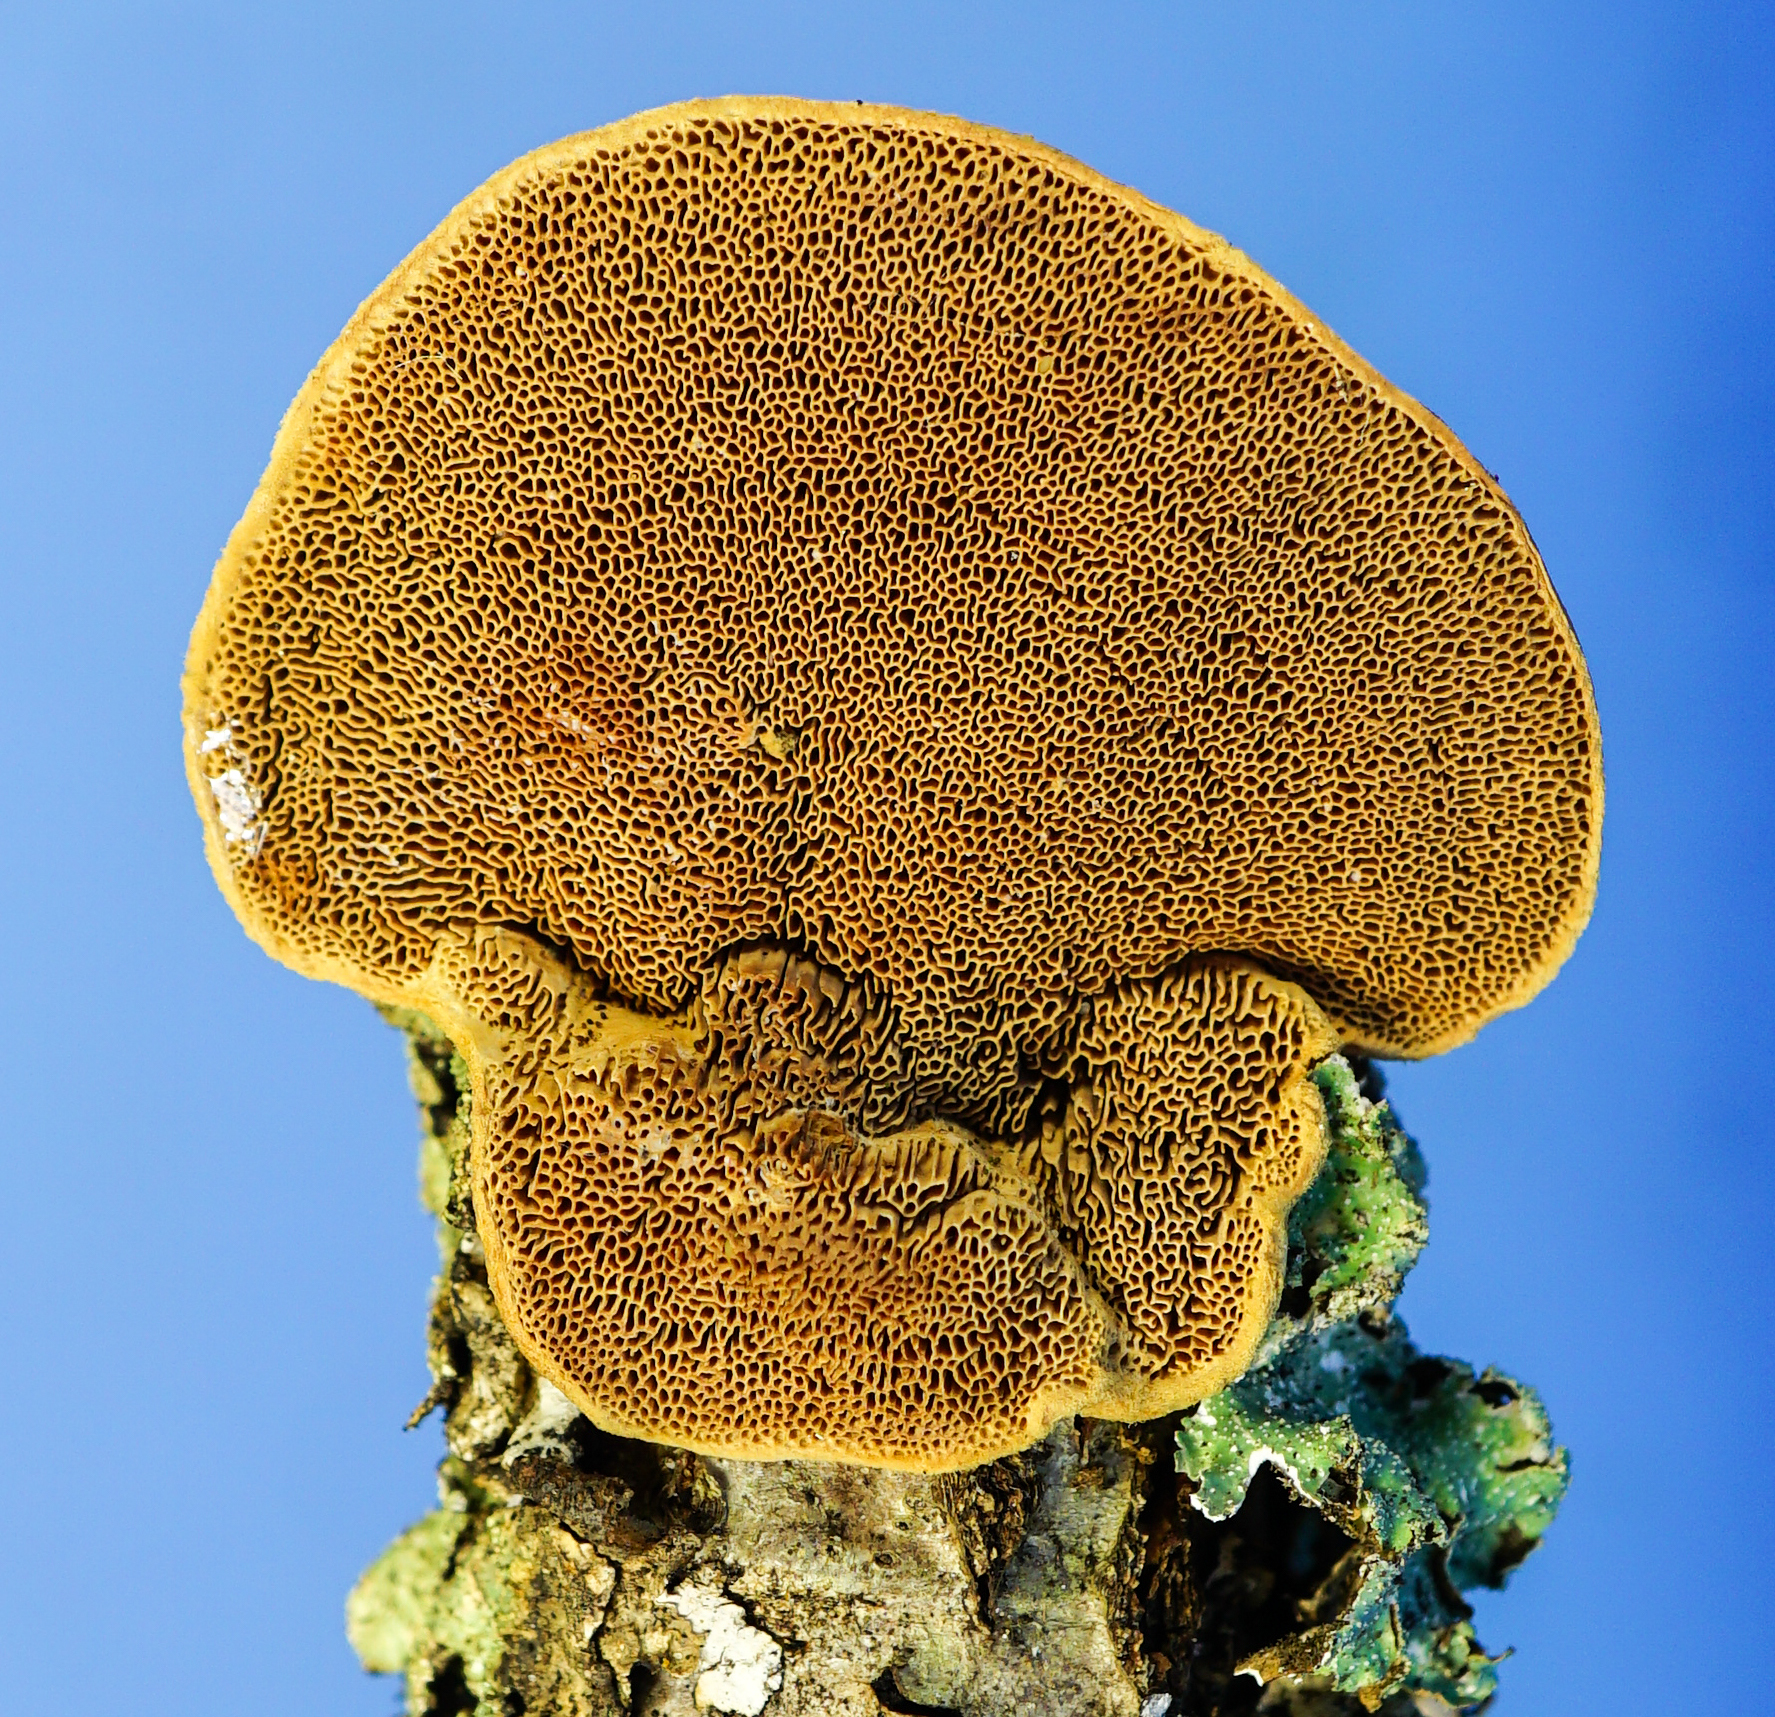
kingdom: Fungi
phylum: Basidiomycota
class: Agaricomycetes
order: Polyporales
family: Phanerochaetaceae
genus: Hapalopilus
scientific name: Hapalopilus rutilans
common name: Tender nesting polypore
